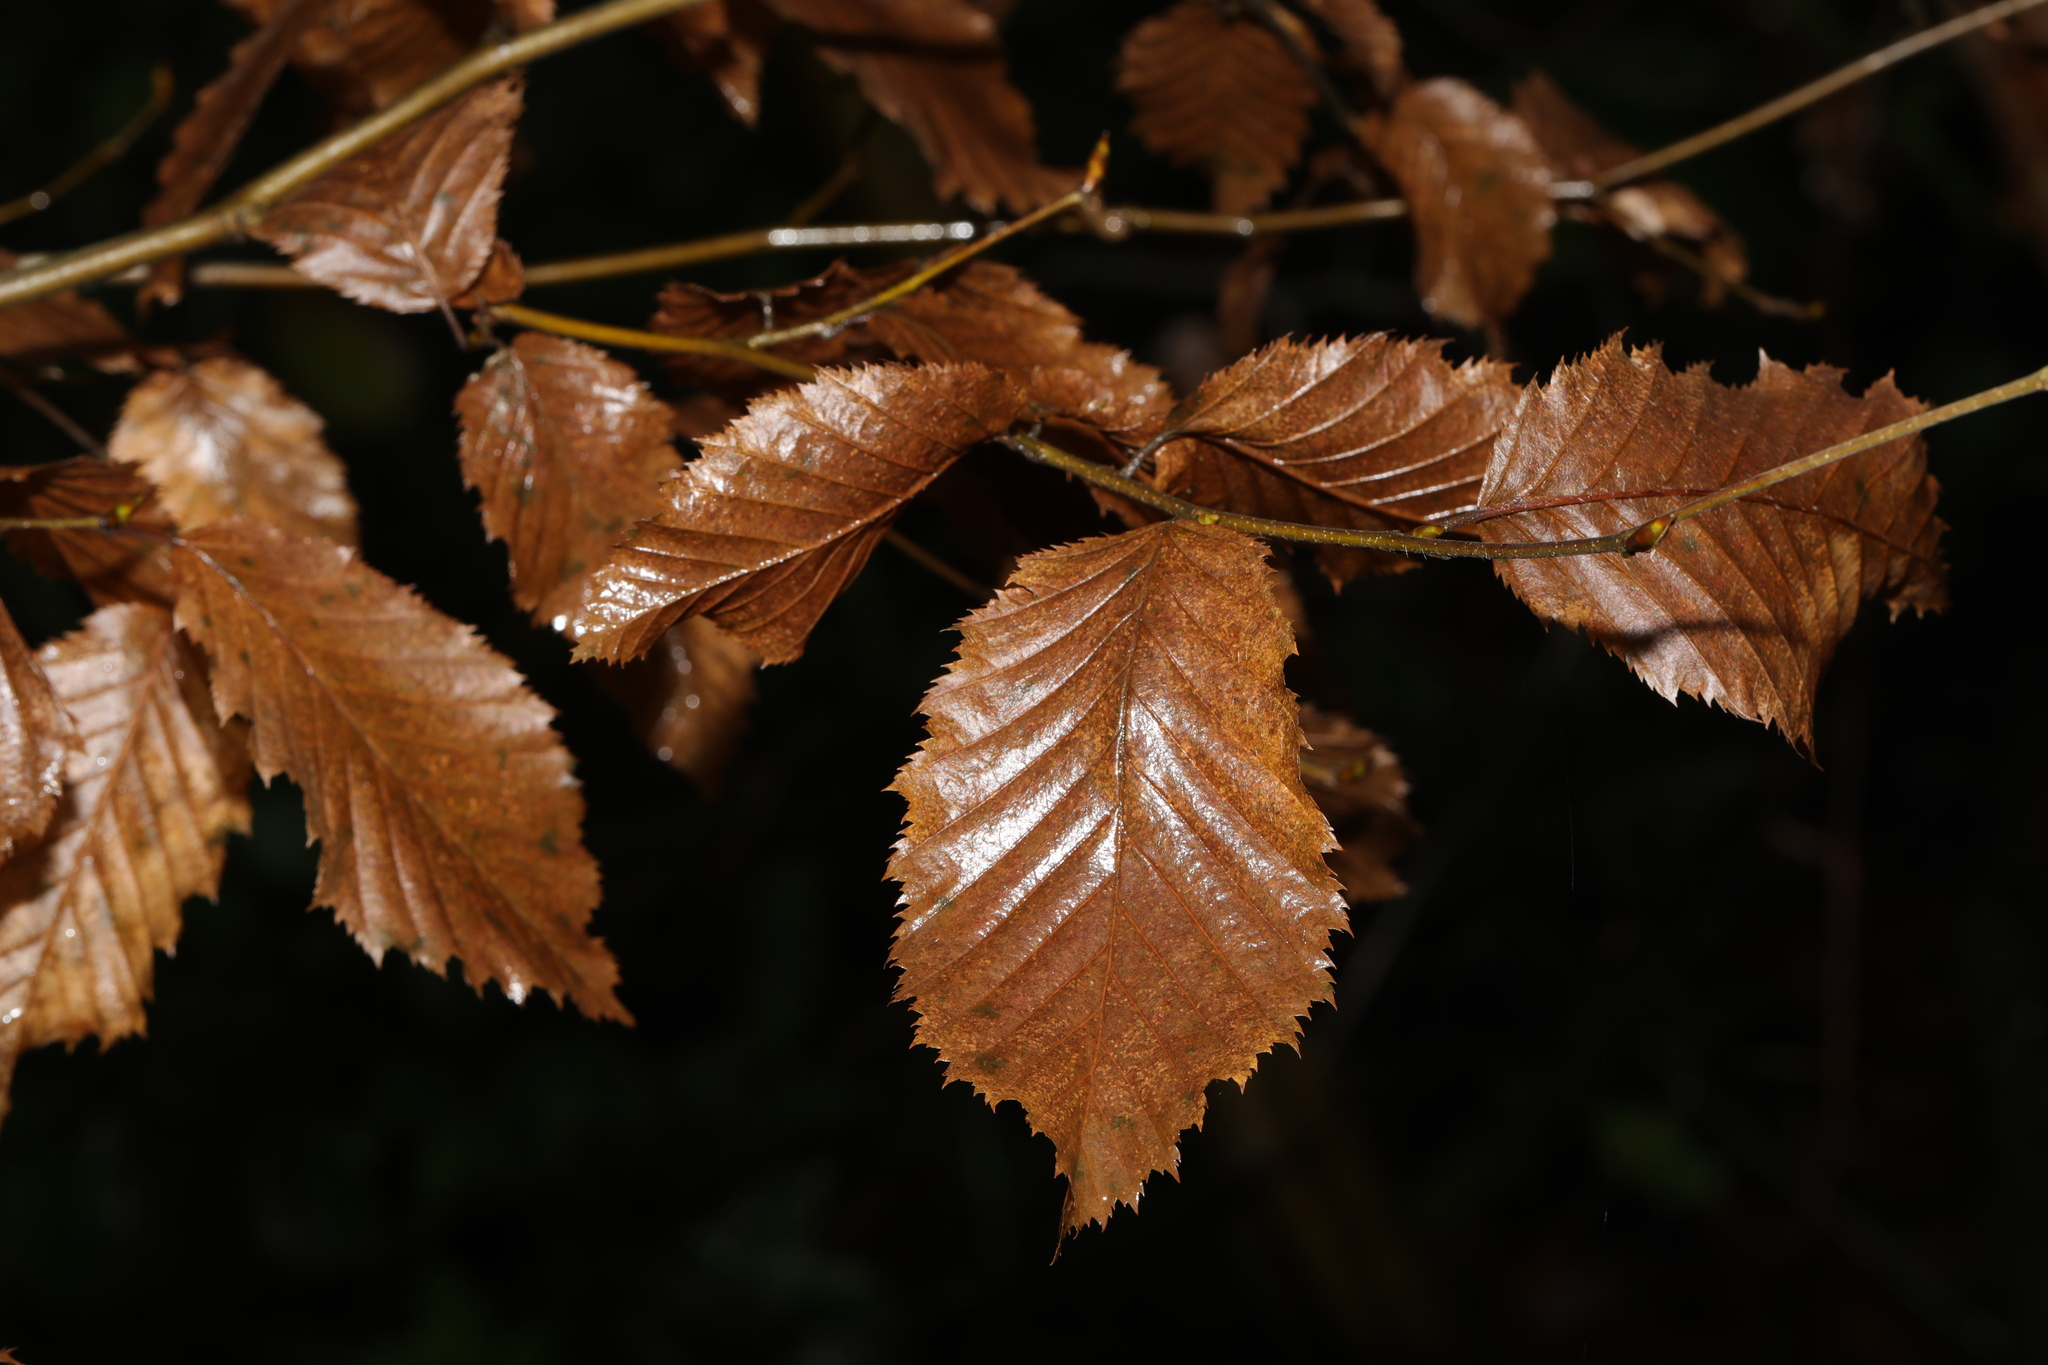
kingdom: Plantae
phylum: Tracheophyta
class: Magnoliopsida
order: Fagales
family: Betulaceae
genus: Carpinus
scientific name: Carpinus betulus
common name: Hornbeam
